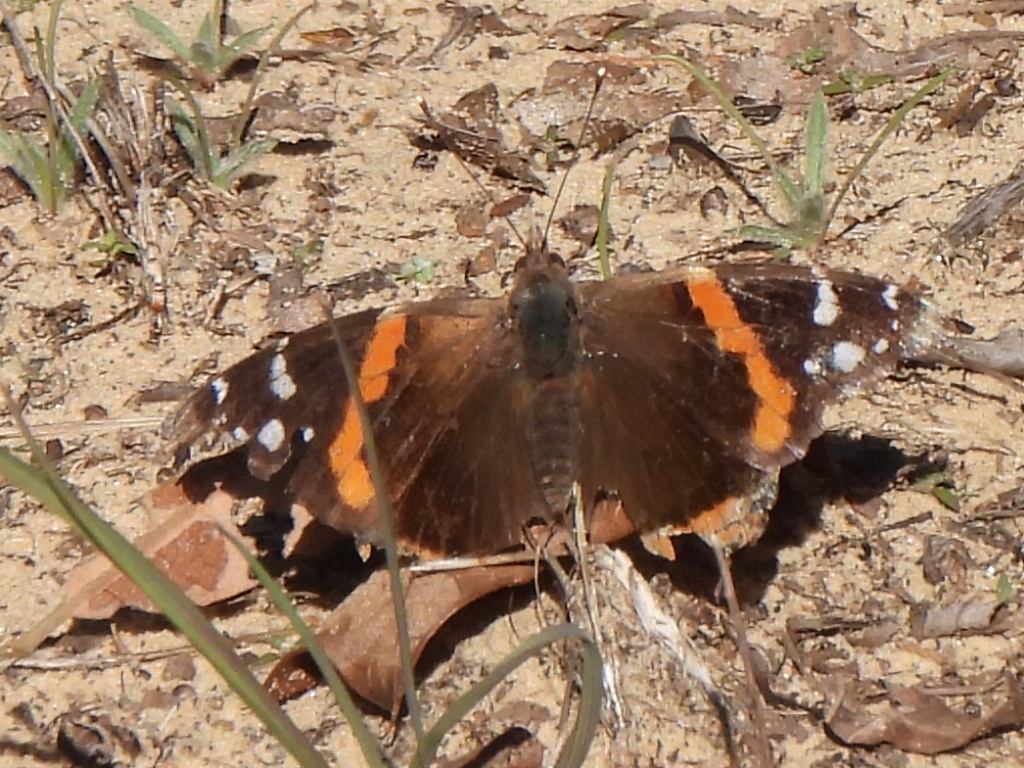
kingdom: Animalia
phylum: Arthropoda
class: Insecta
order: Lepidoptera
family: Nymphalidae
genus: Vanessa
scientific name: Vanessa atalanta
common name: Red admiral
